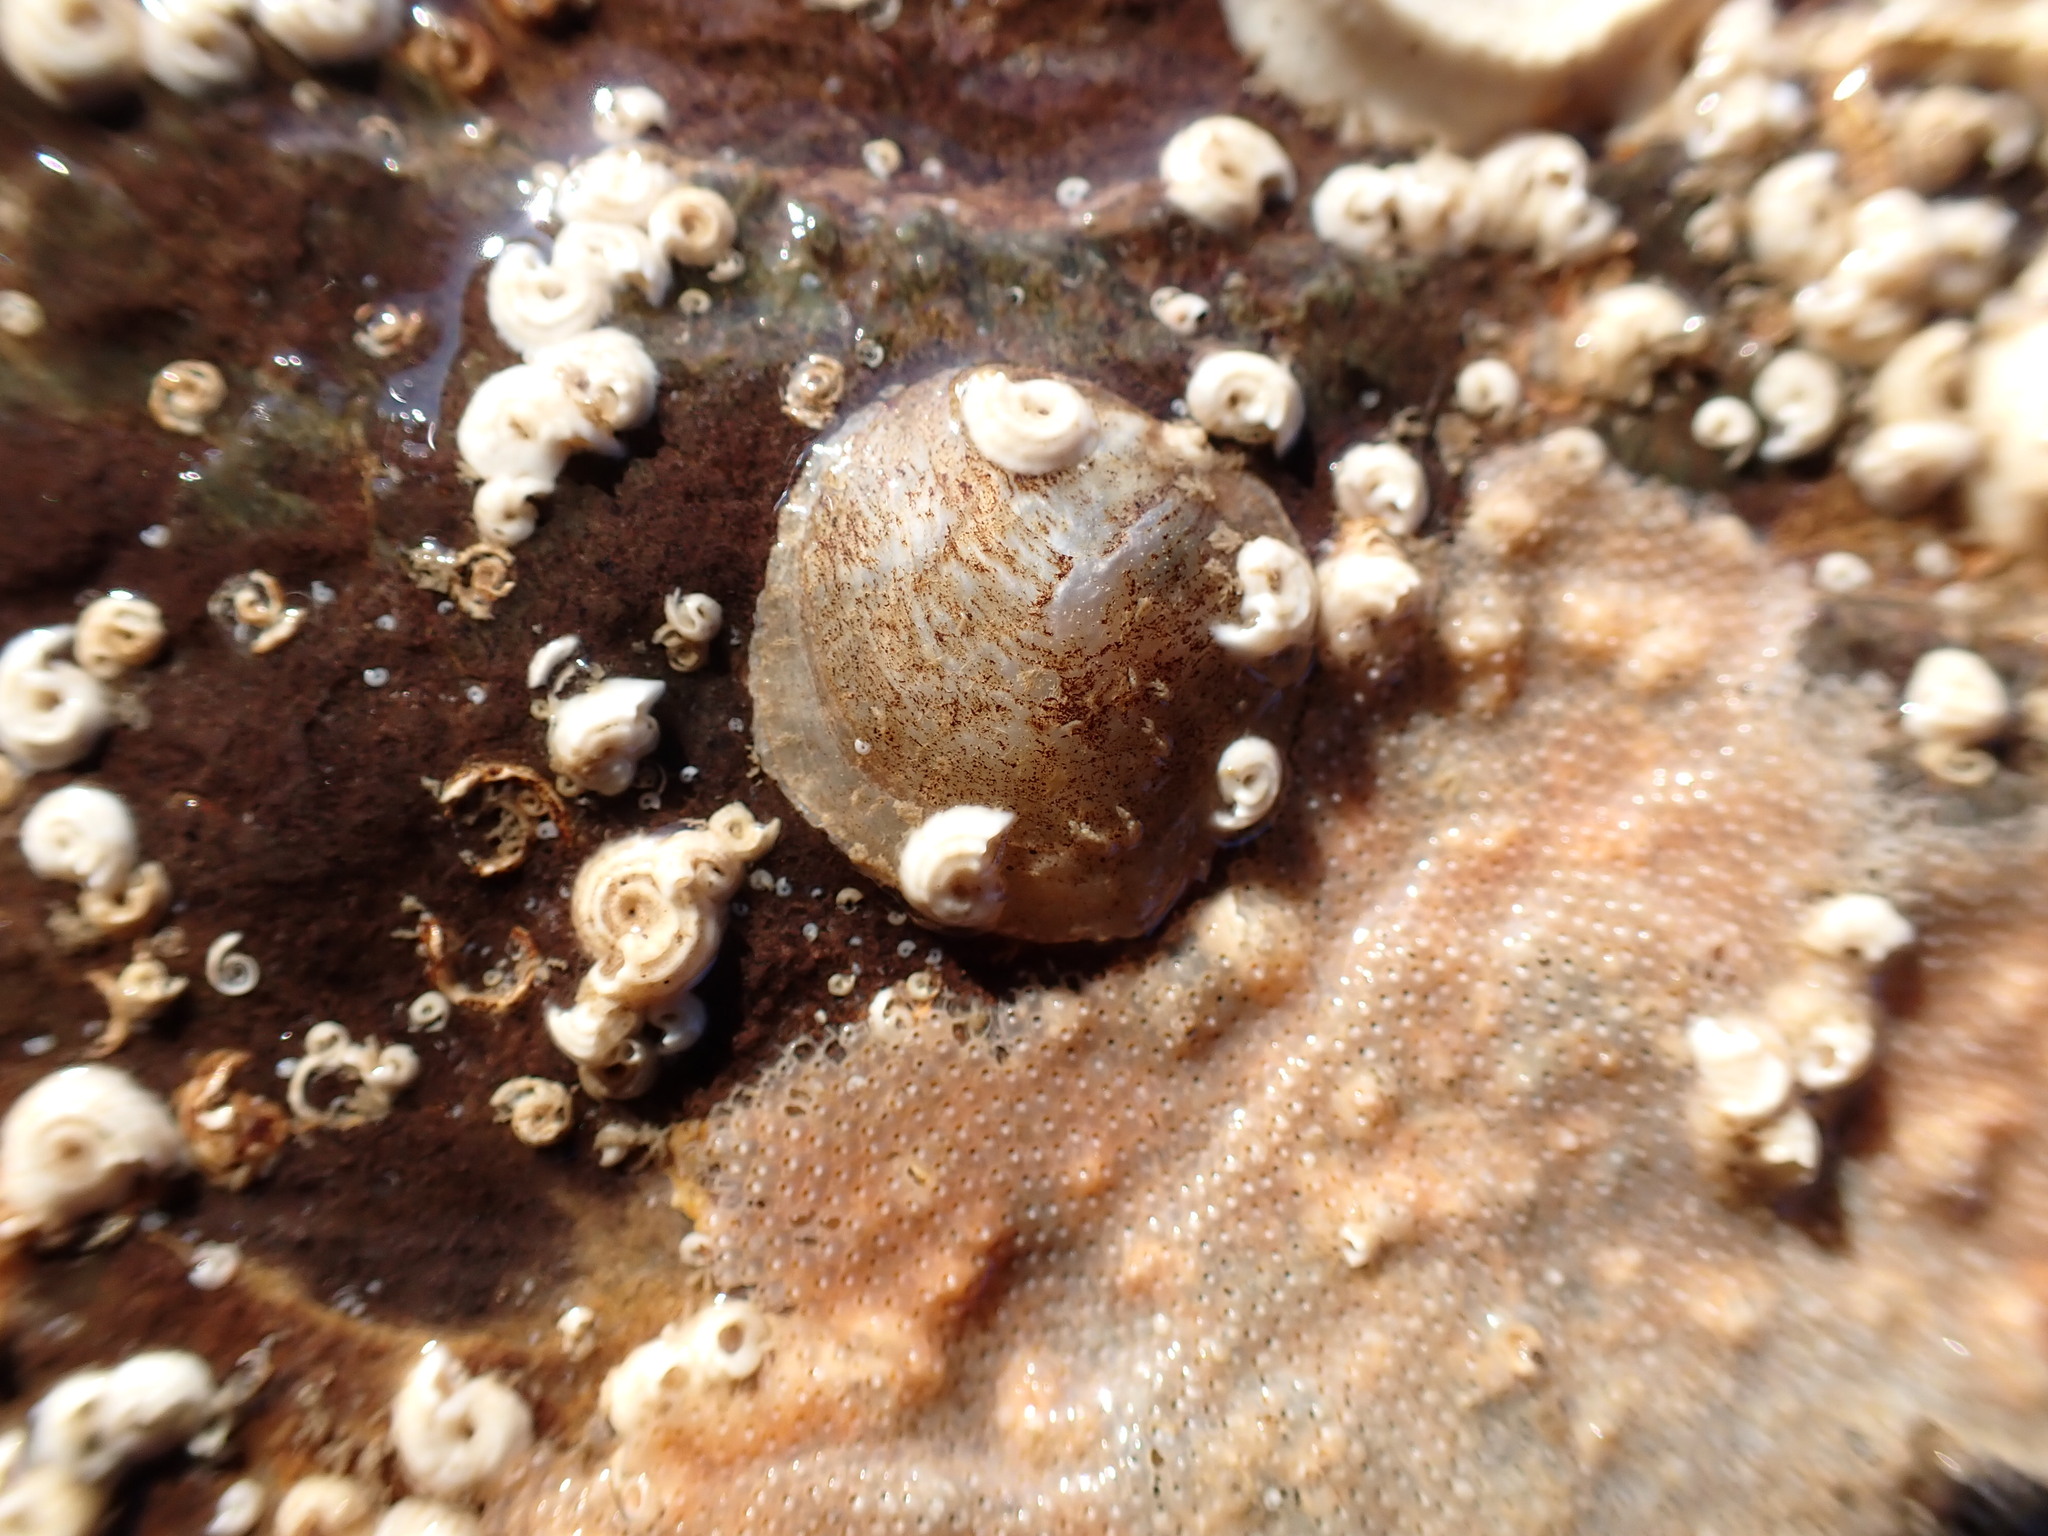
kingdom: Animalia
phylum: Mollusca
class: Bivalvia
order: Pectinida
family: Anomiidae
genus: Anomia
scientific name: Anomia ephippium
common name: Saddle oyster
